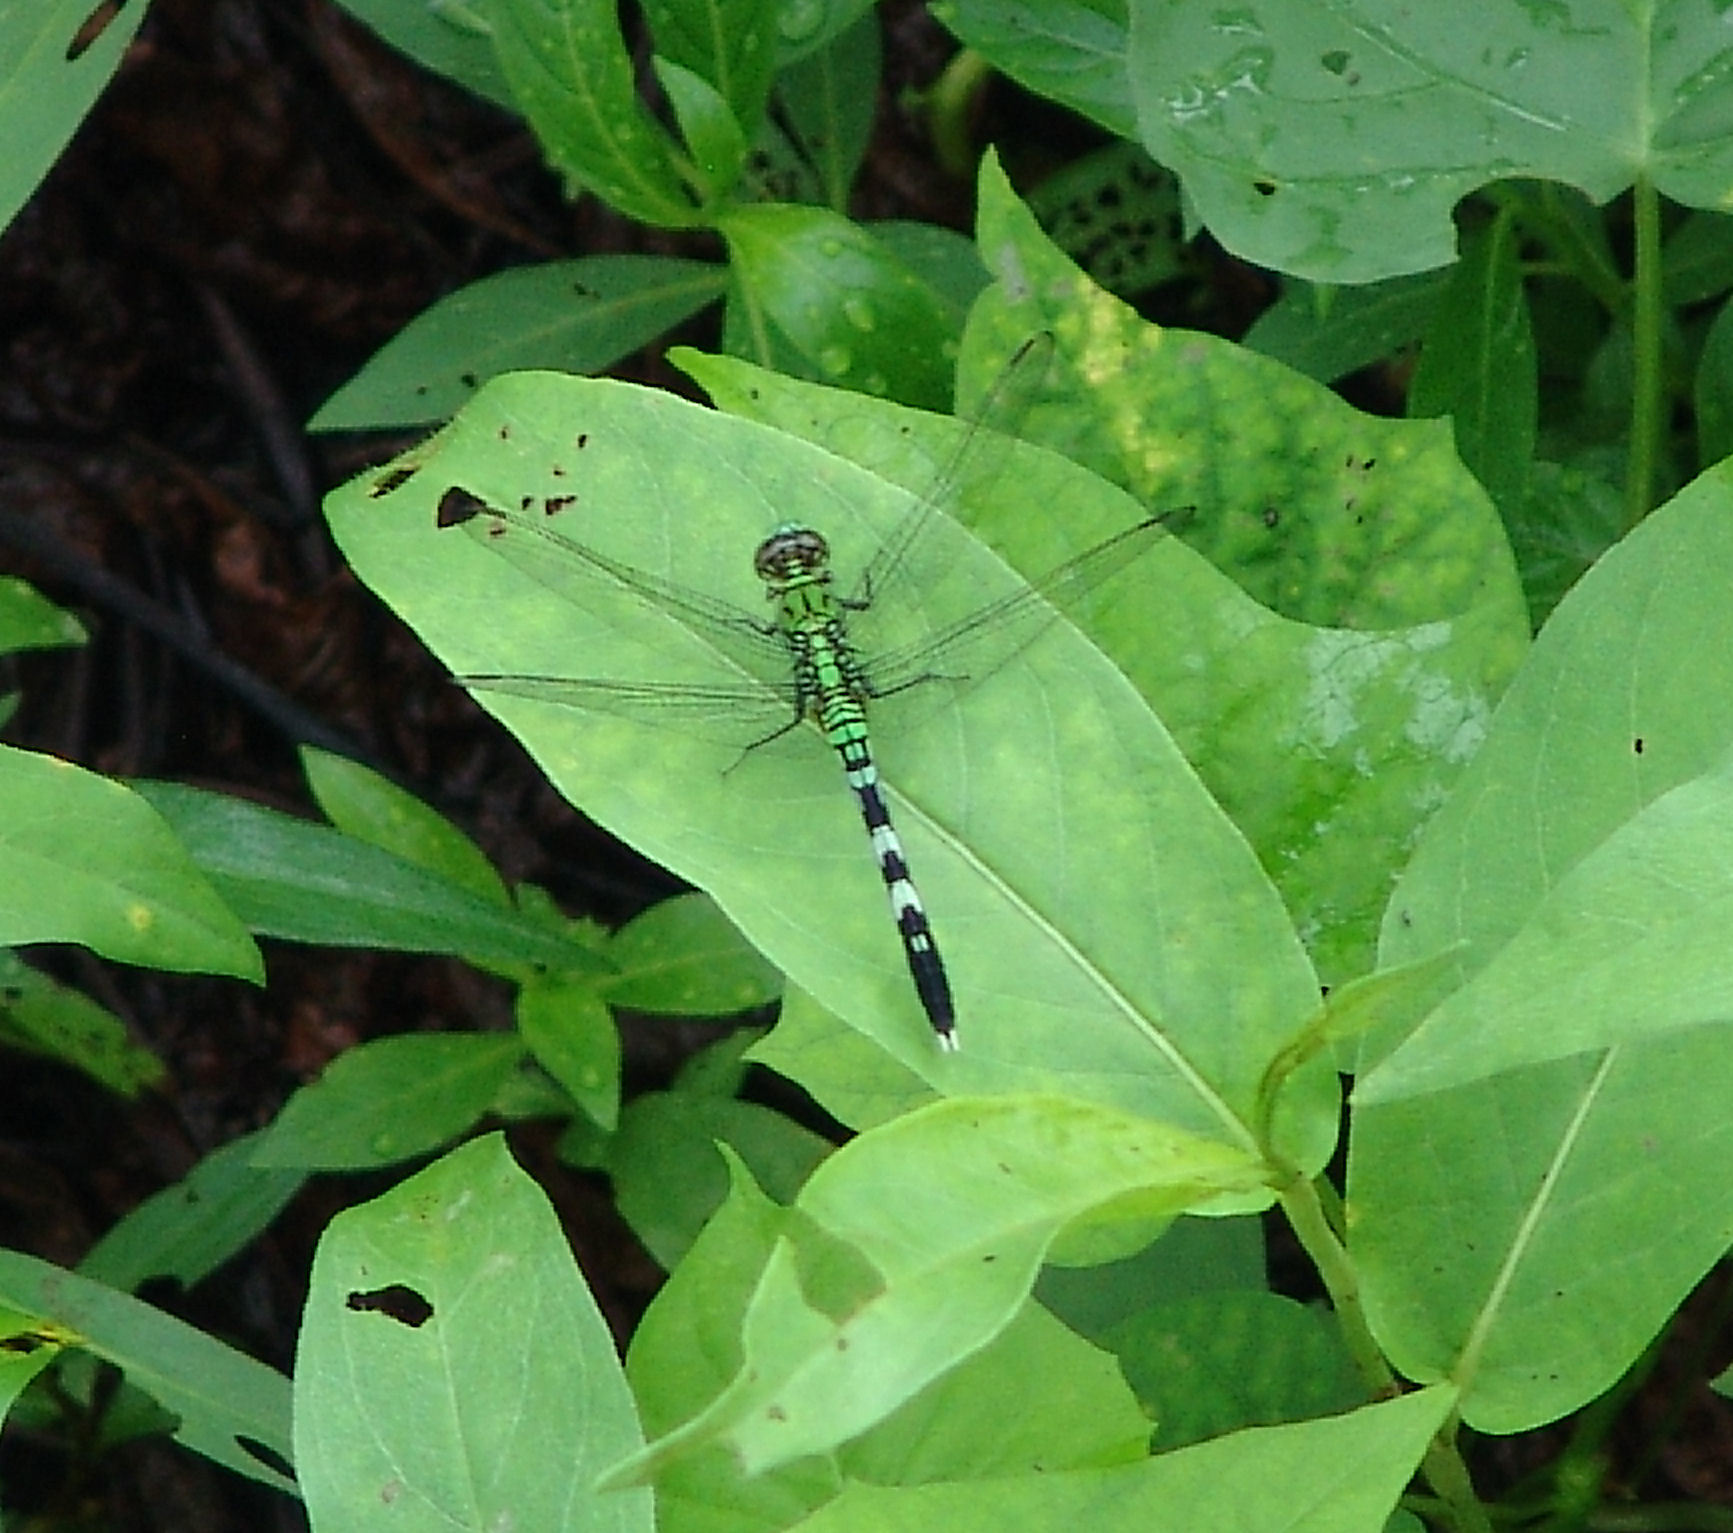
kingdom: Animalia
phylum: Arthropoda
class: Insecta
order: Odonata
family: Libellulidae
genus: Erythemis
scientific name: Erythemis simplicicollis
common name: Eastern pondhawk
